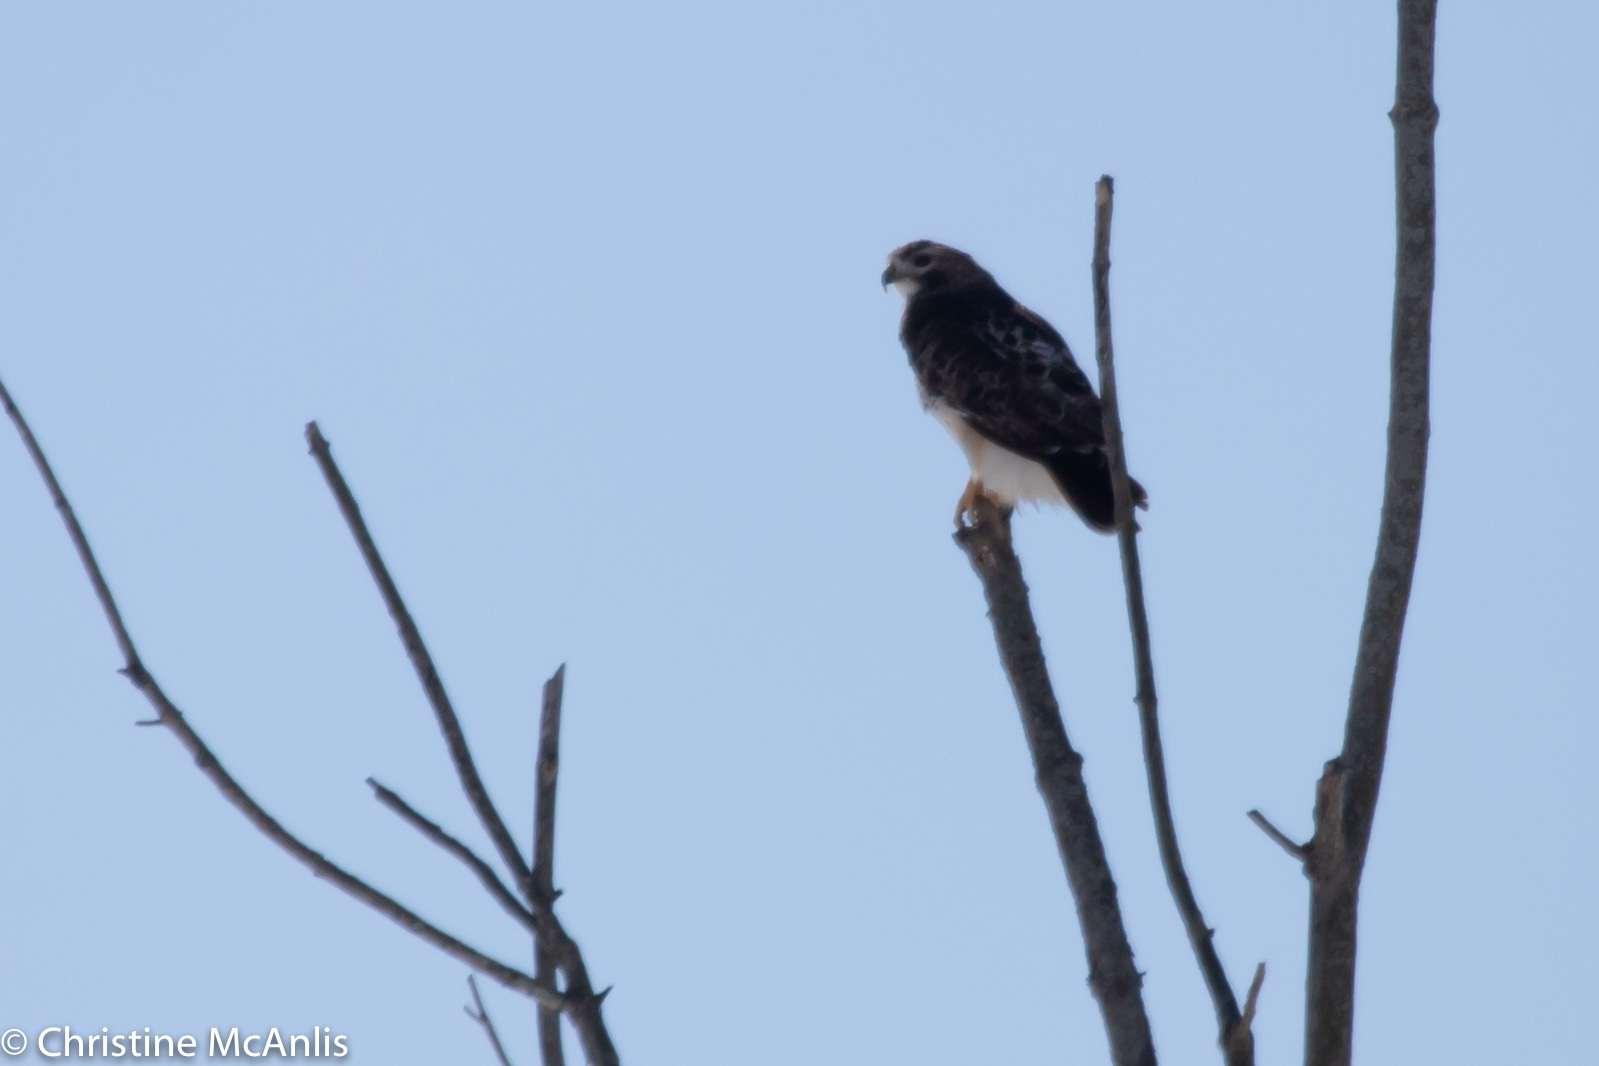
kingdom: Animalia
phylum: Chordata
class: Aves
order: Accipitriformes
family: Accipitridae
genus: Buteo
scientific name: Buteo jamaicensis
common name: Red-tailed hawk
